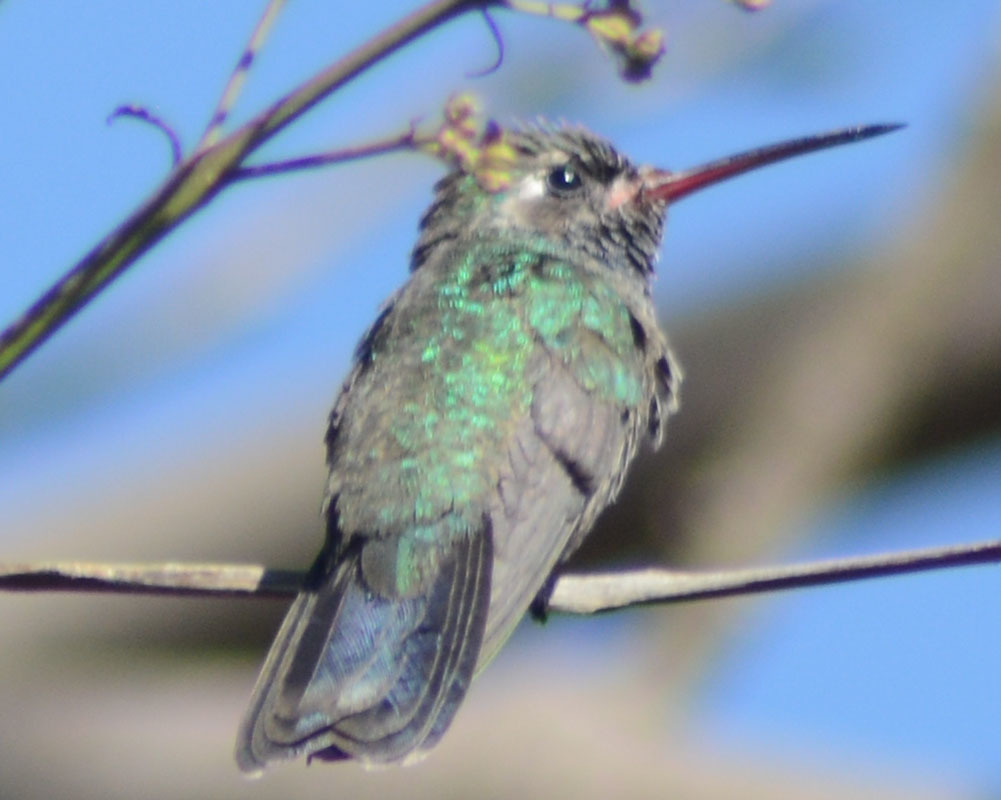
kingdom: Animalia
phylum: Chordata
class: Aves
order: Apodiformes
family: Trochilidae
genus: Cynanthus
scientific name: Cynanthus latirostris
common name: Broad-billed hummingbird
